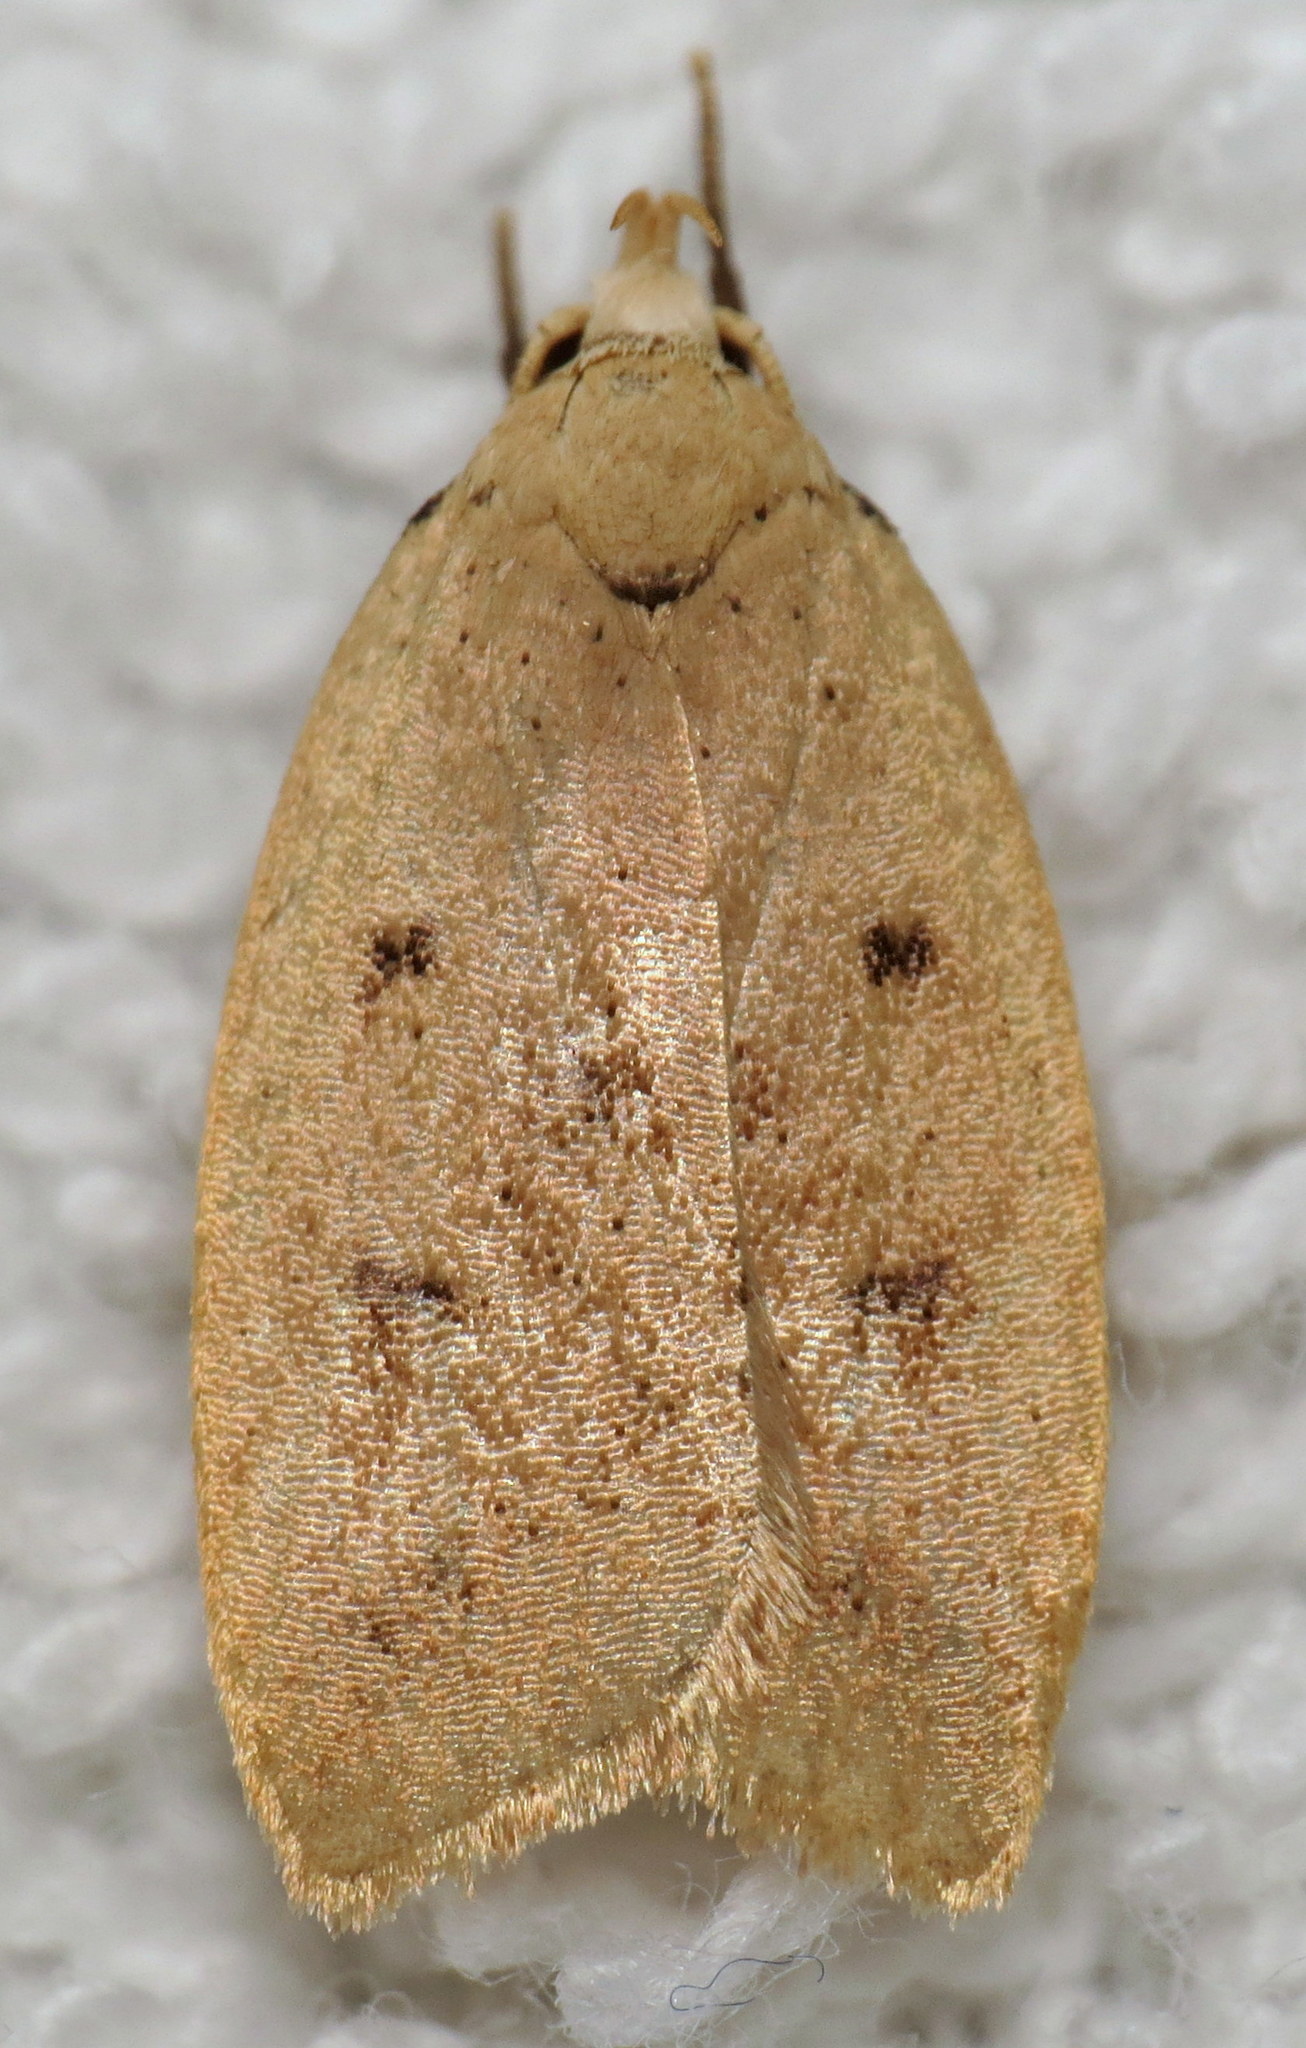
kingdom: Animalia
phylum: Arthropoda
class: Insecta
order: Lepidoptera
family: Peleopodidae
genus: Machimia
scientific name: Machimia tentoriferella
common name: Gold-striped leaftier moth
